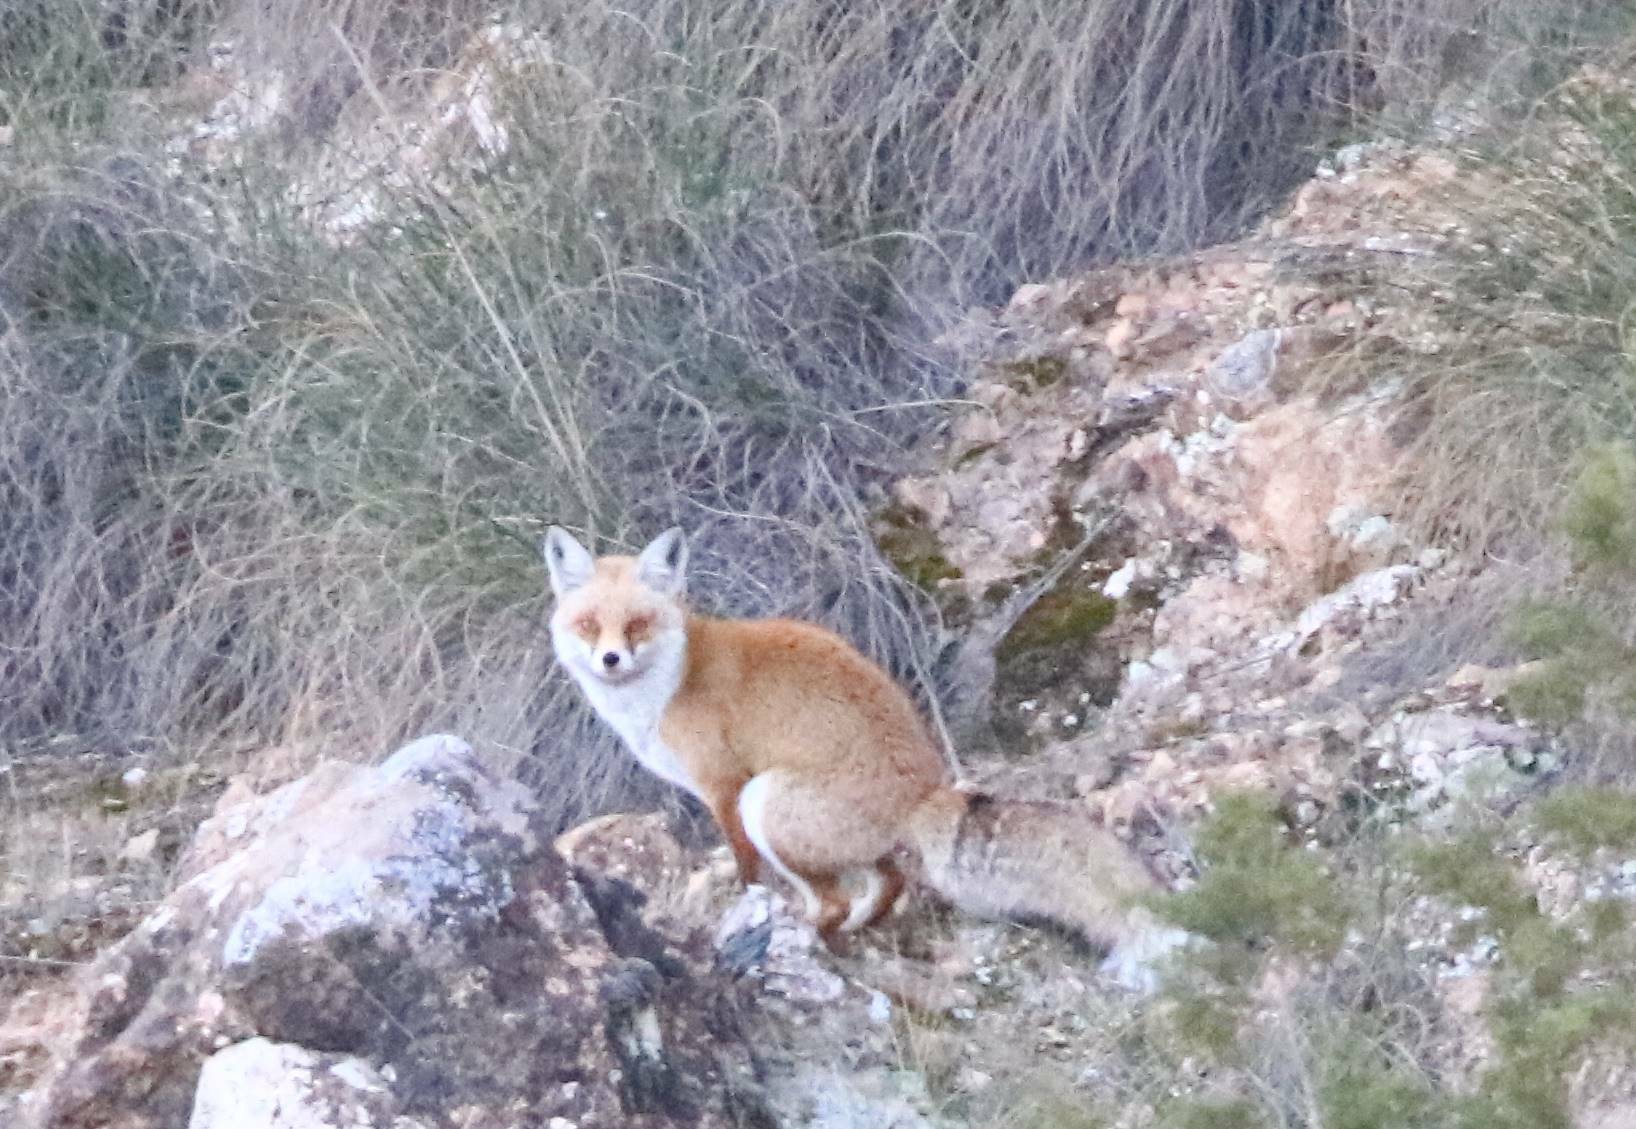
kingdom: Animalia
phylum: Chordata
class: Mammalia
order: Carnivora
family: Canidae
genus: Vulpes
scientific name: Vulpes vulpes
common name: Red fox
